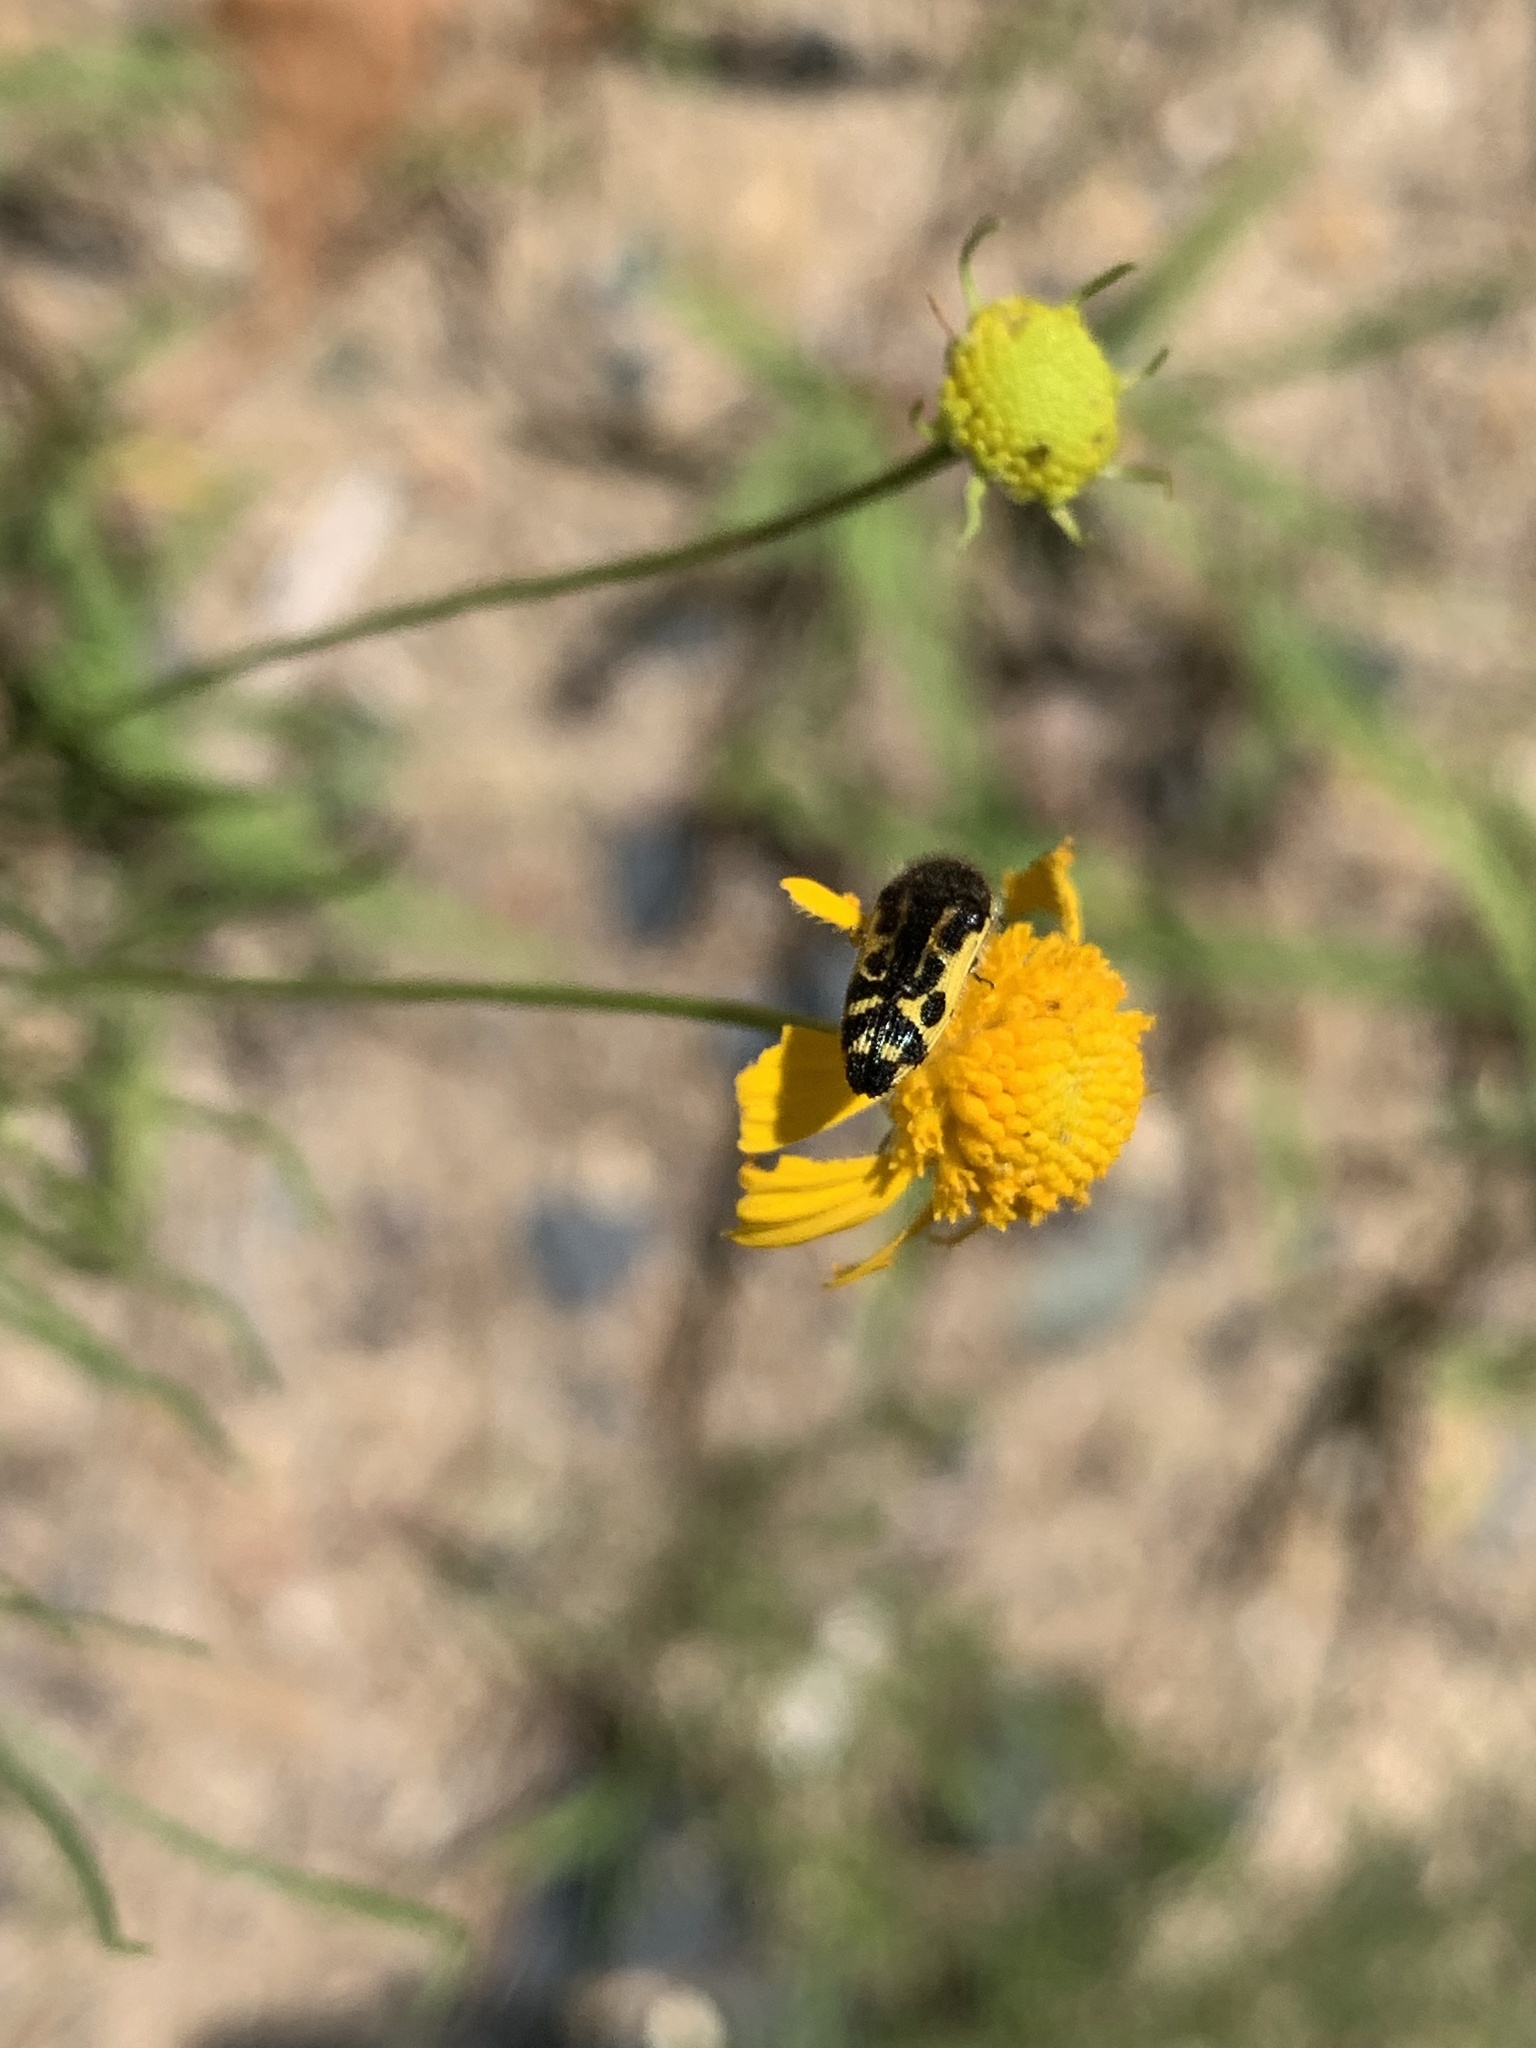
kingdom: Animalia
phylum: Arthropoda
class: Insecta
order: Coleoptera
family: Buprestidae
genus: Acmaeodera
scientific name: Acmaeodera pulchella
